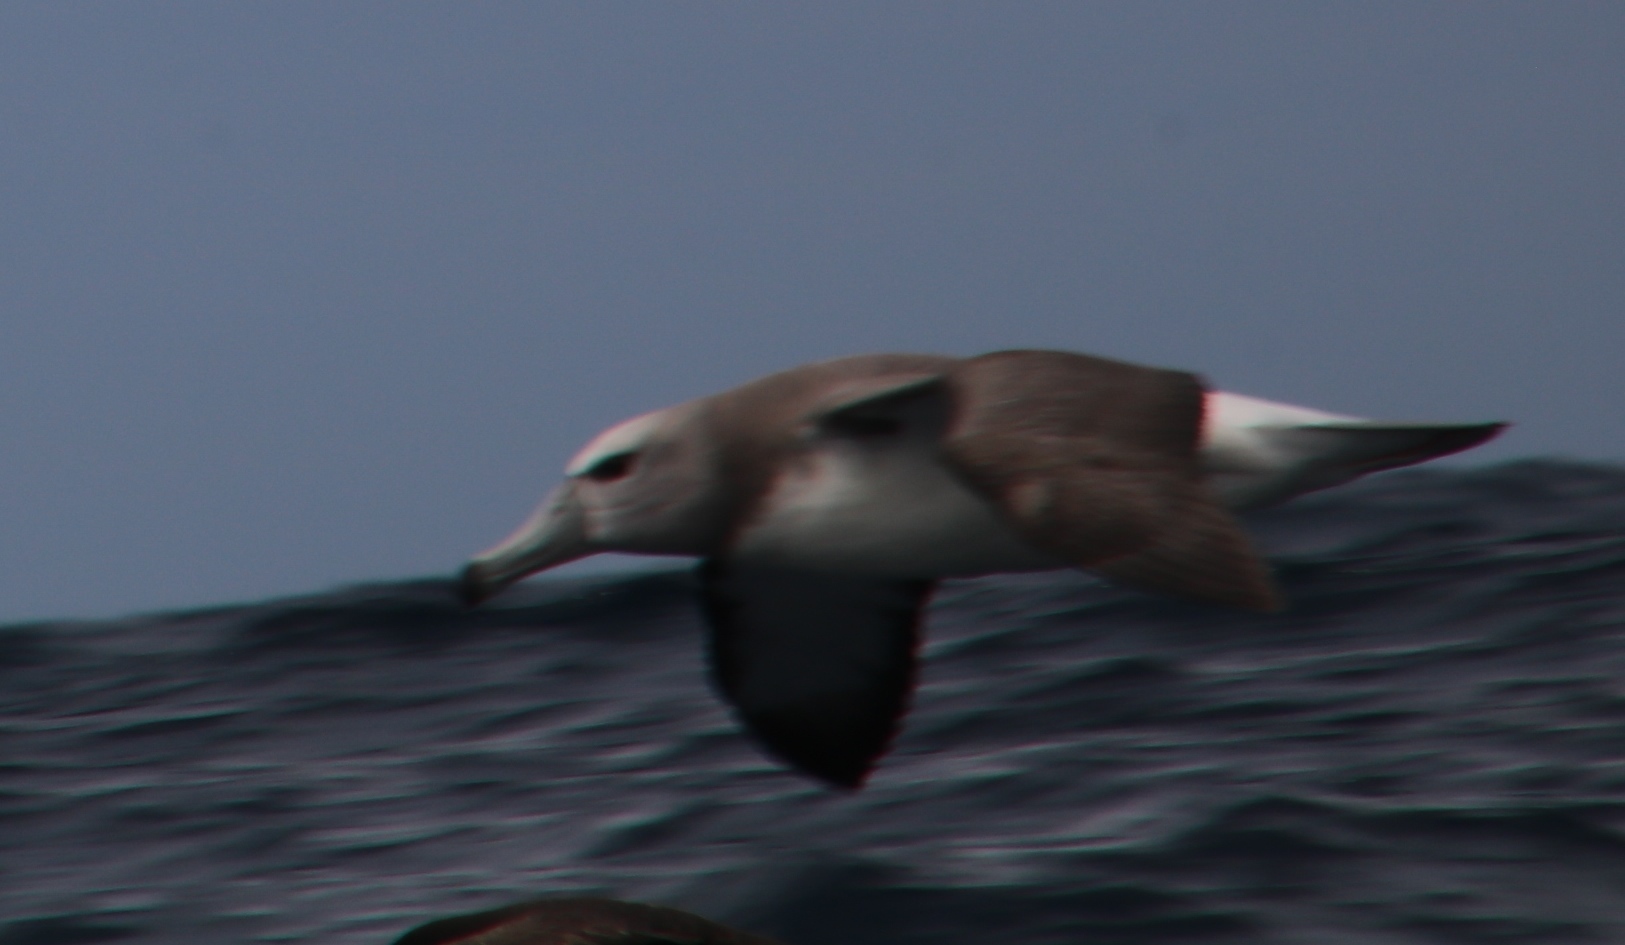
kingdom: Animalia
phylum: Chordata
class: Aves
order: Procellariiformes
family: Diomedeidae
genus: Thalassarche
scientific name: Thalassarche cauta
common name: Shy albatross
